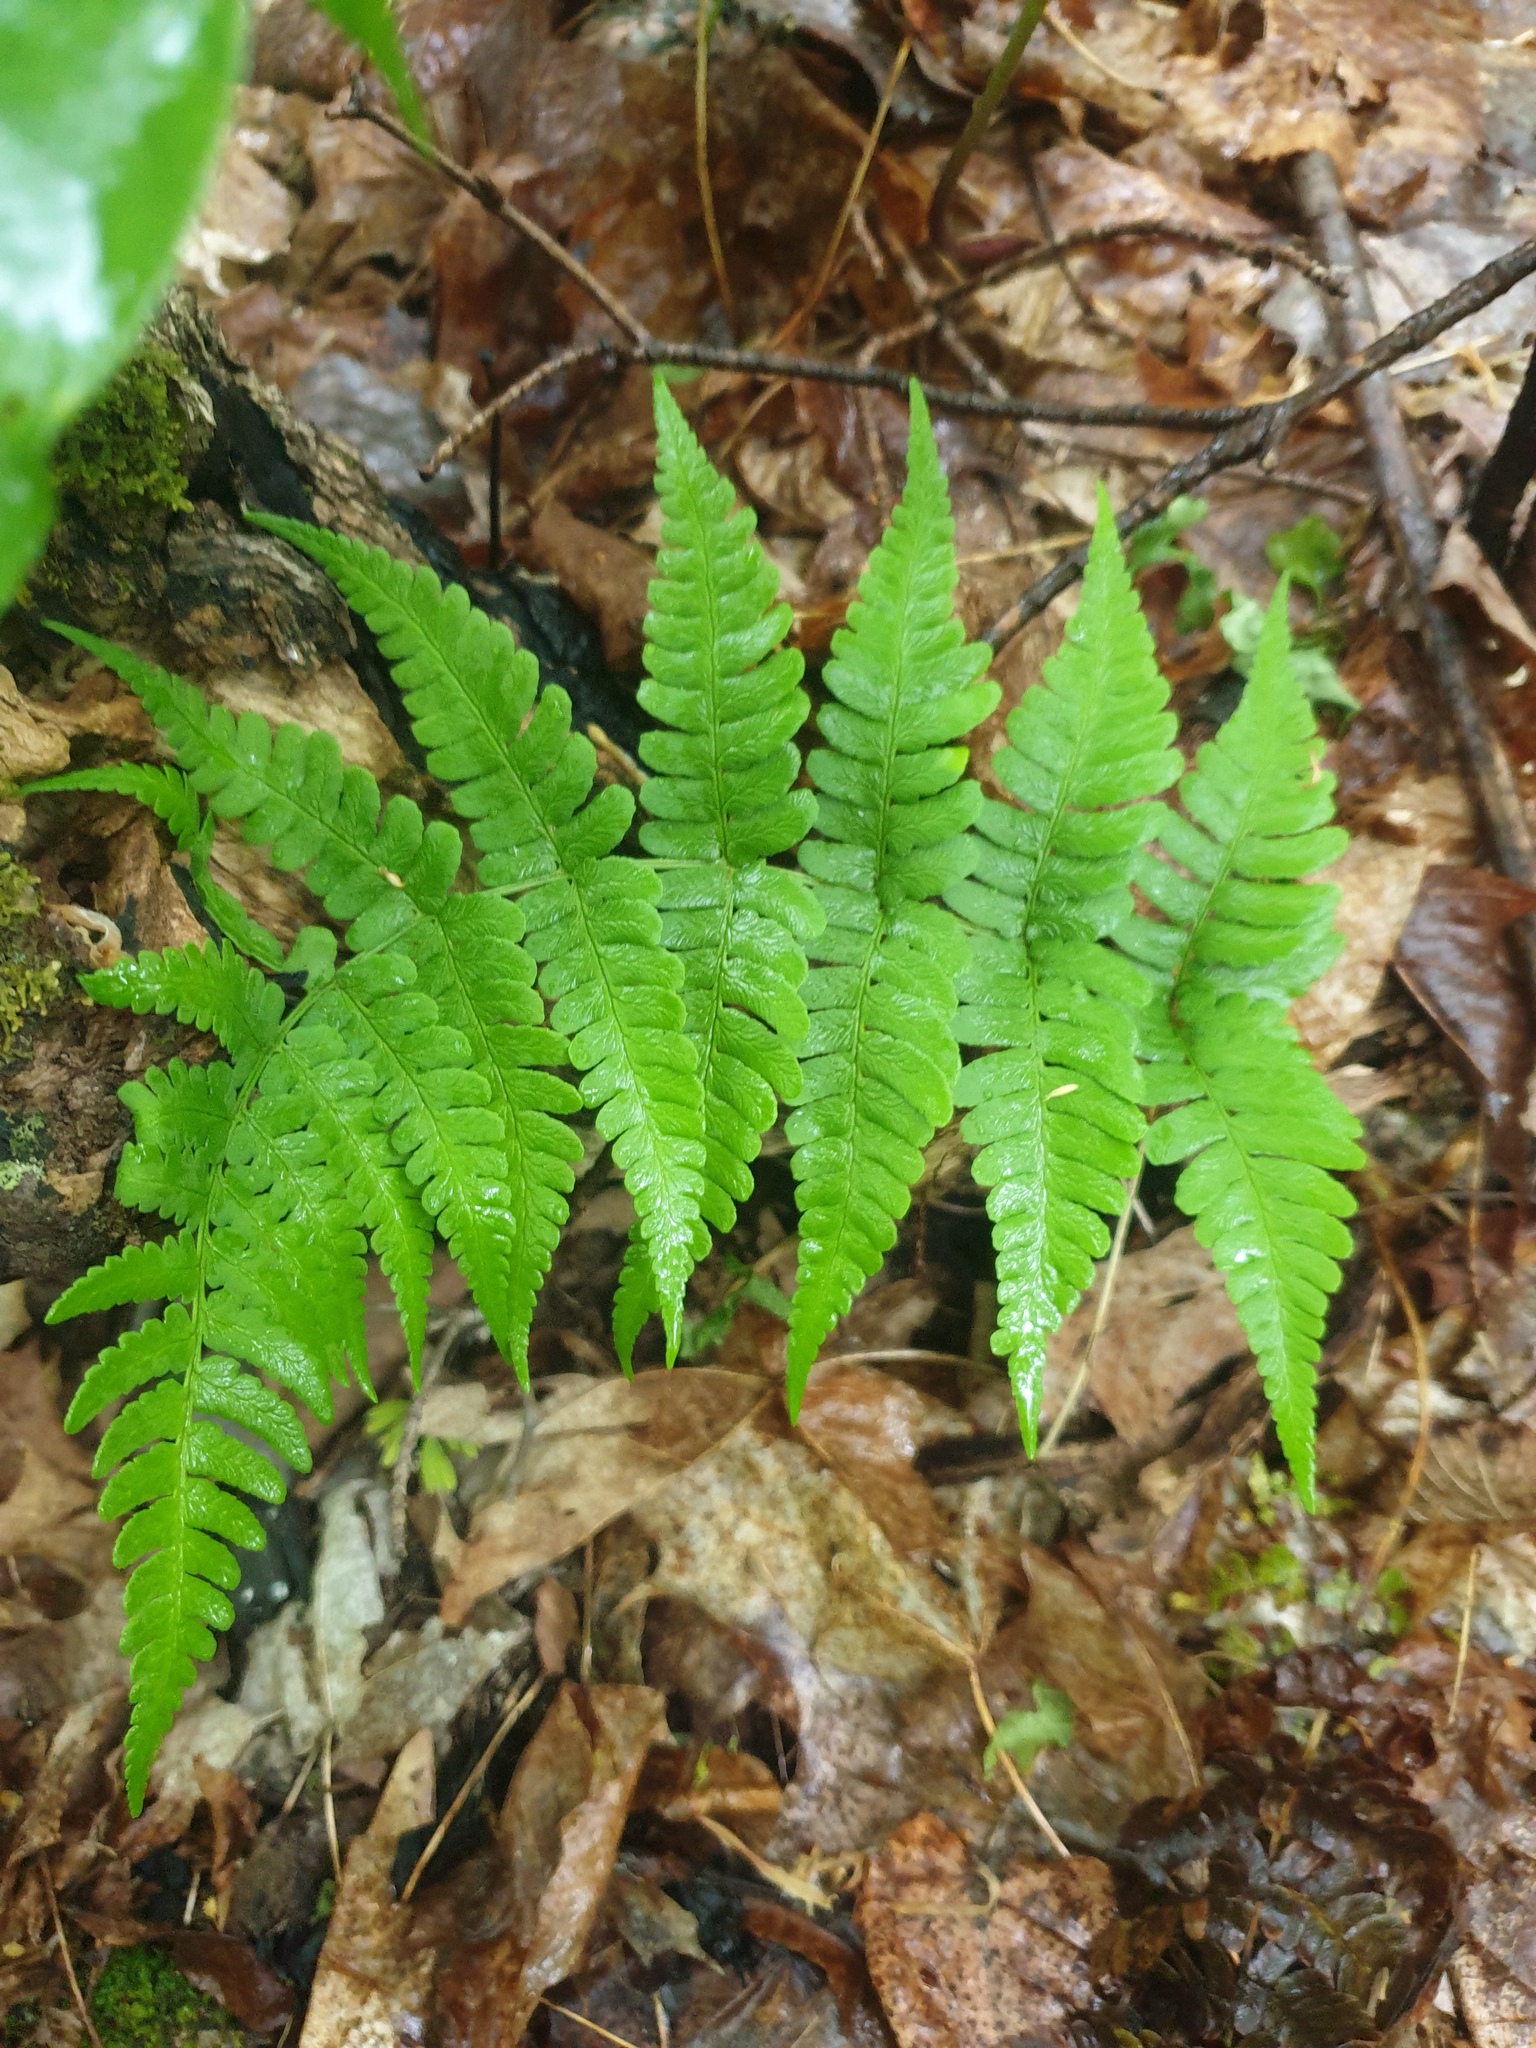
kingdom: Plantae
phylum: Tracheophyta
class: Polypodiopsida
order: Polypodiales
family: Dryopteridaceae
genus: Dryopteris
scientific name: Dryopteris marginalis
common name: Marginal wood fern
